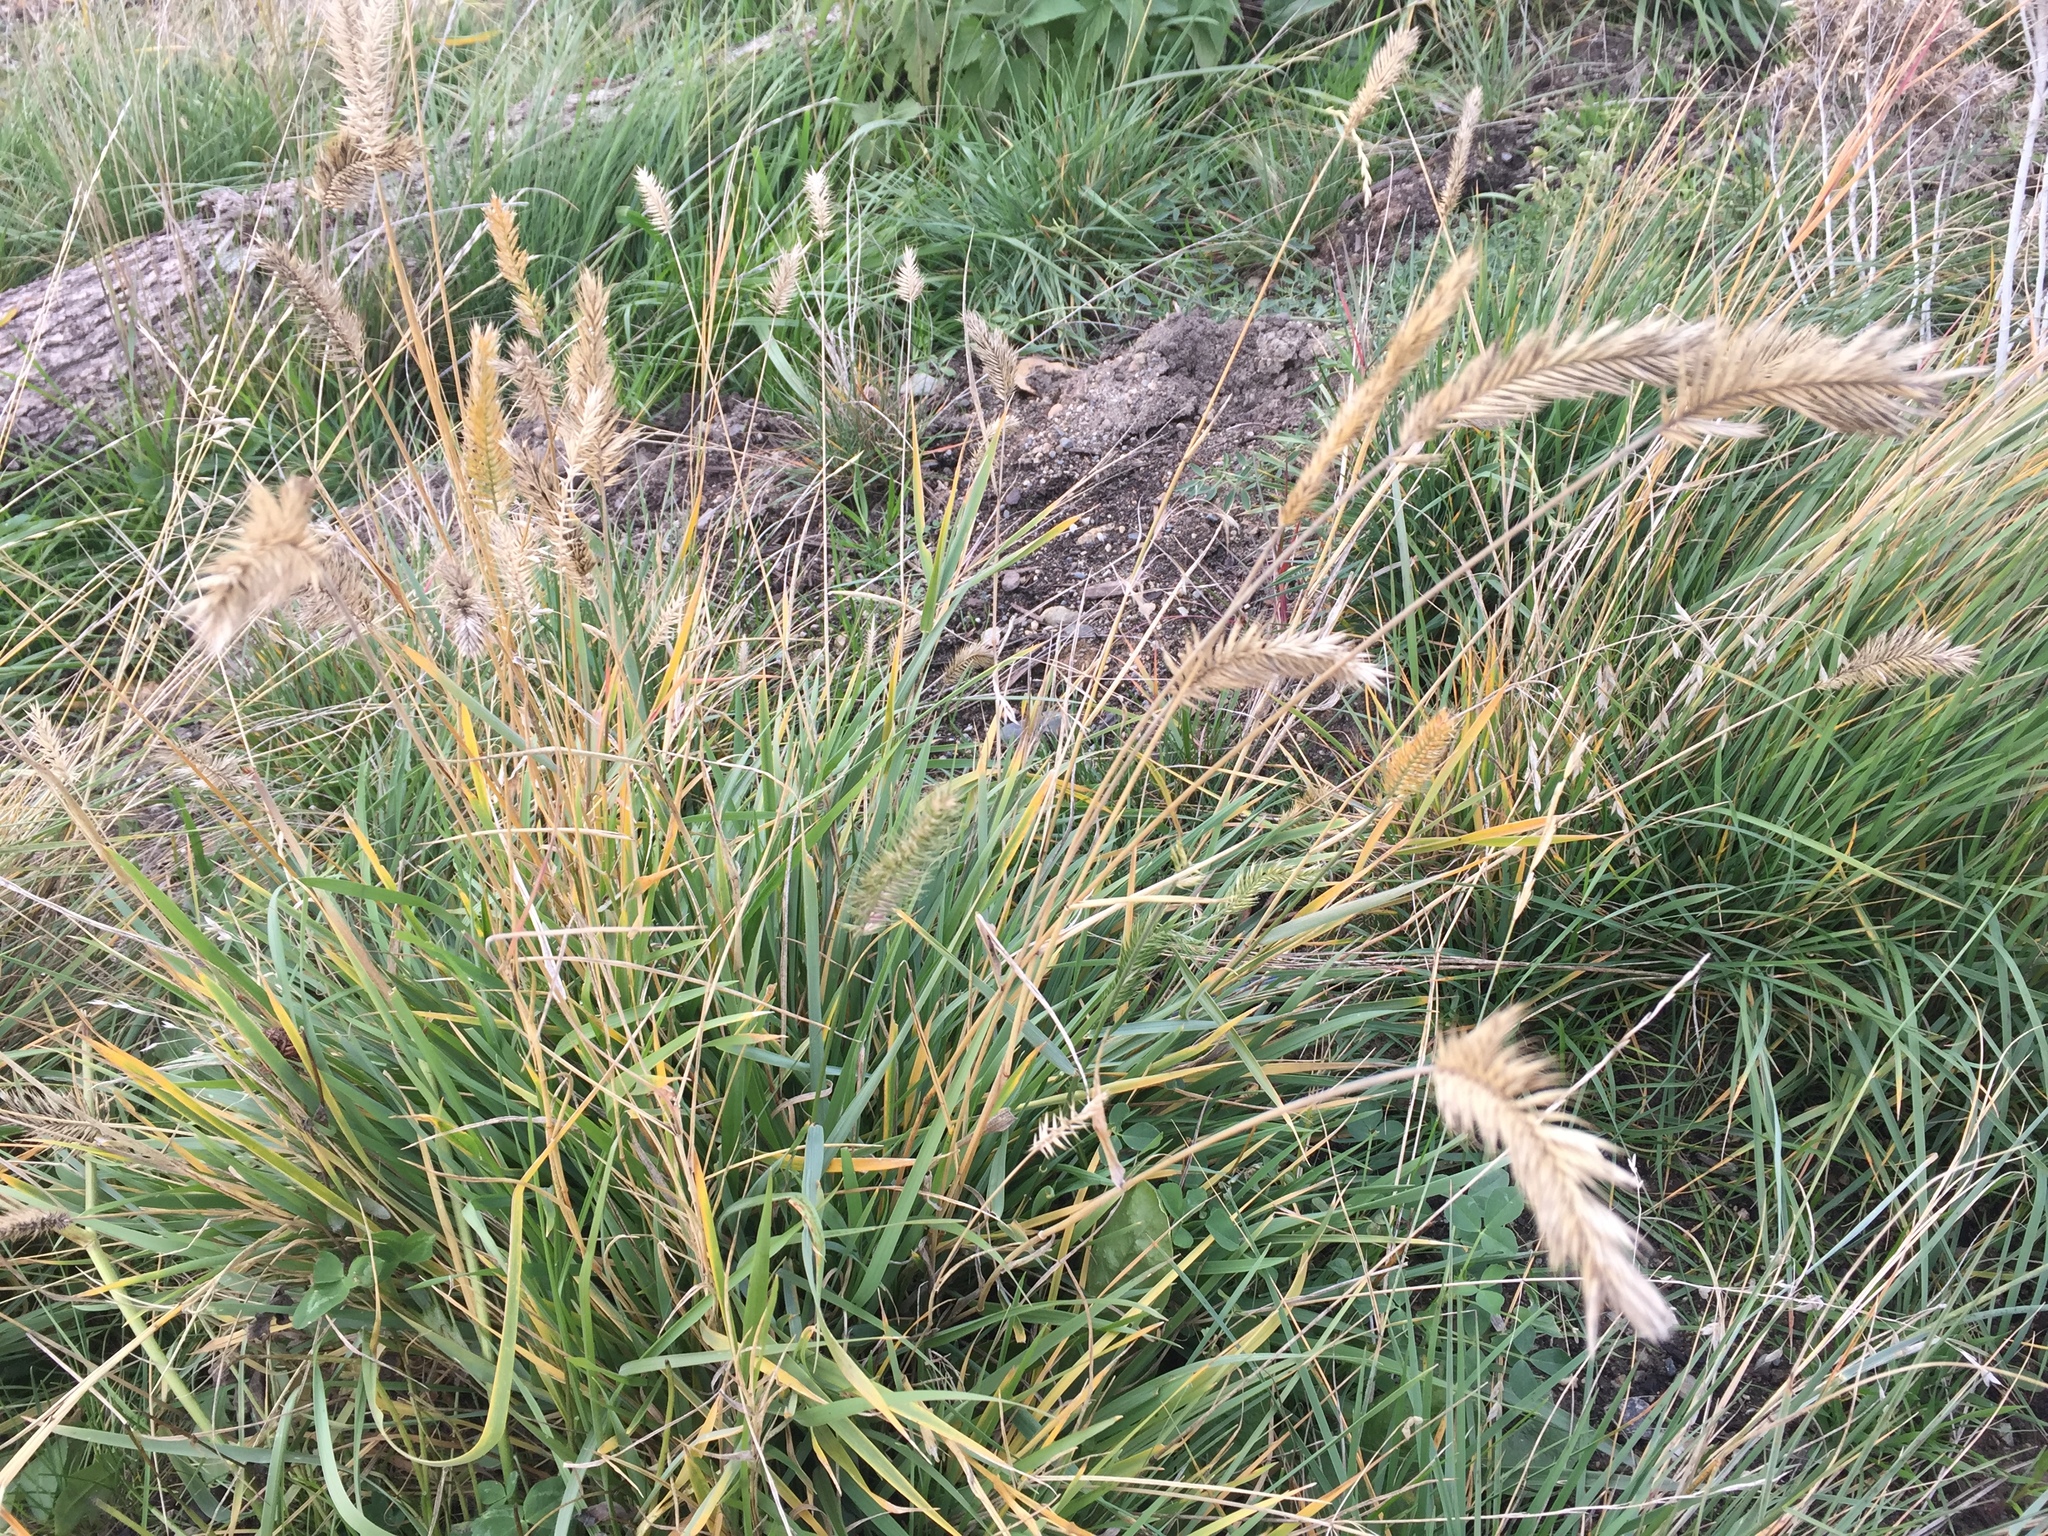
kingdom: Plantae
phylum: Tracheophyta
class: Liliopsida
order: Poales
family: Poaceae
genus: Agropyron
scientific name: Agropyron cristatum
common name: Crested wheatgrass
